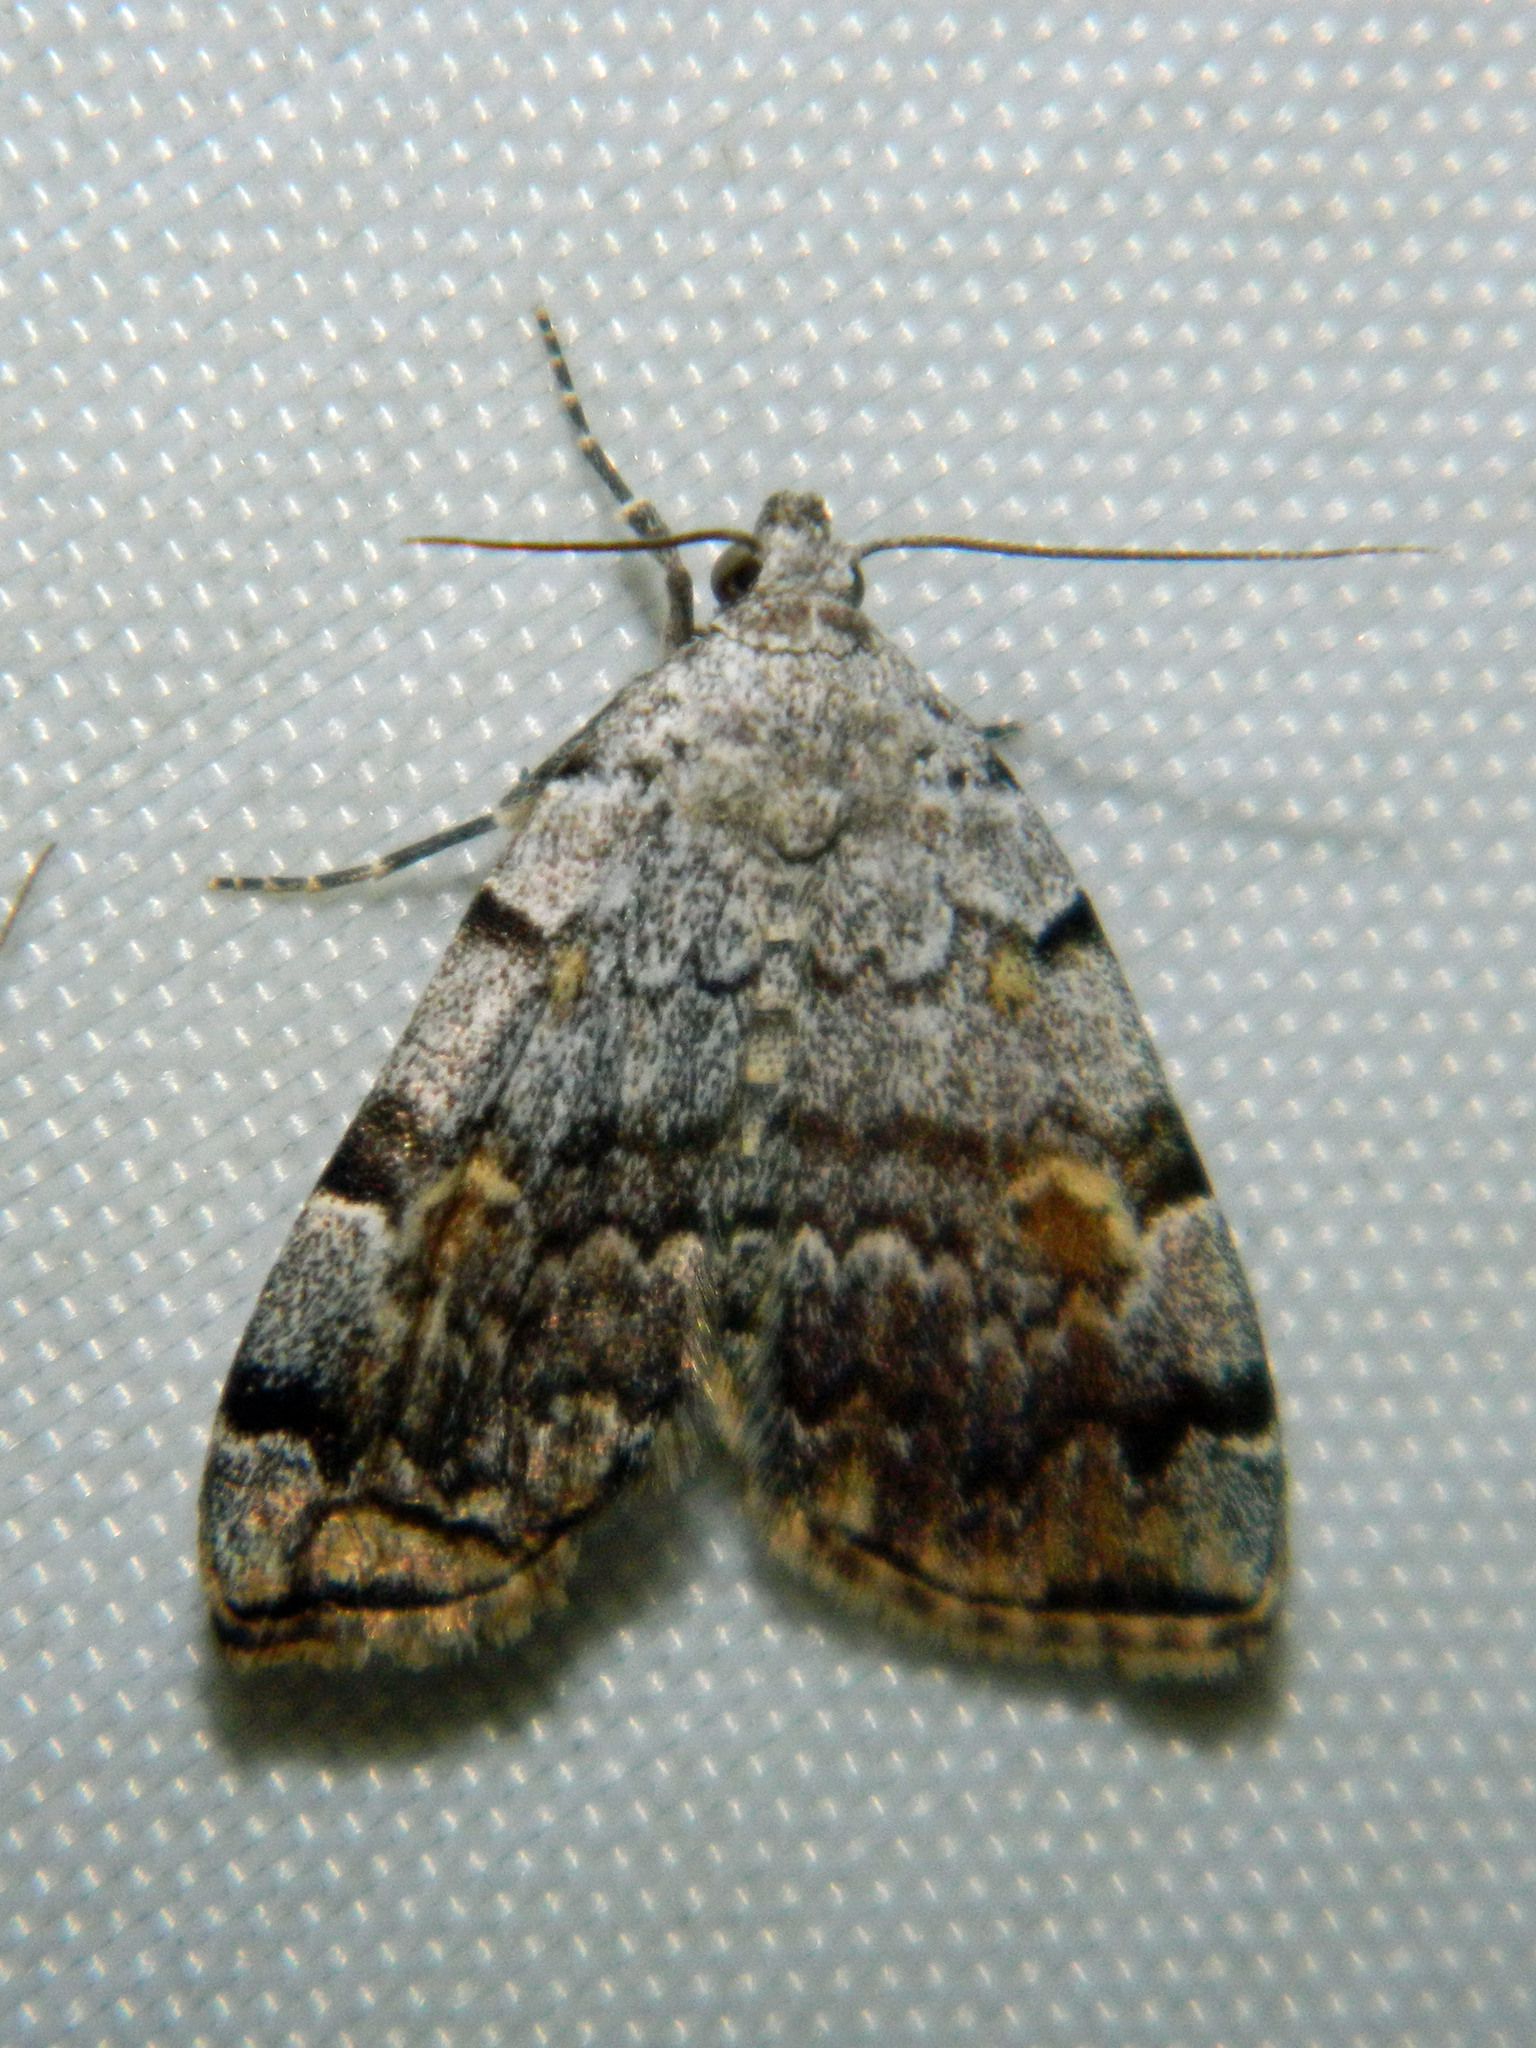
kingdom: Animalia
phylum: Arthropoda
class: Insecta
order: Lepidoptera
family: Erebidae
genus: Idia
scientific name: Idia americalis
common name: American idia moth
